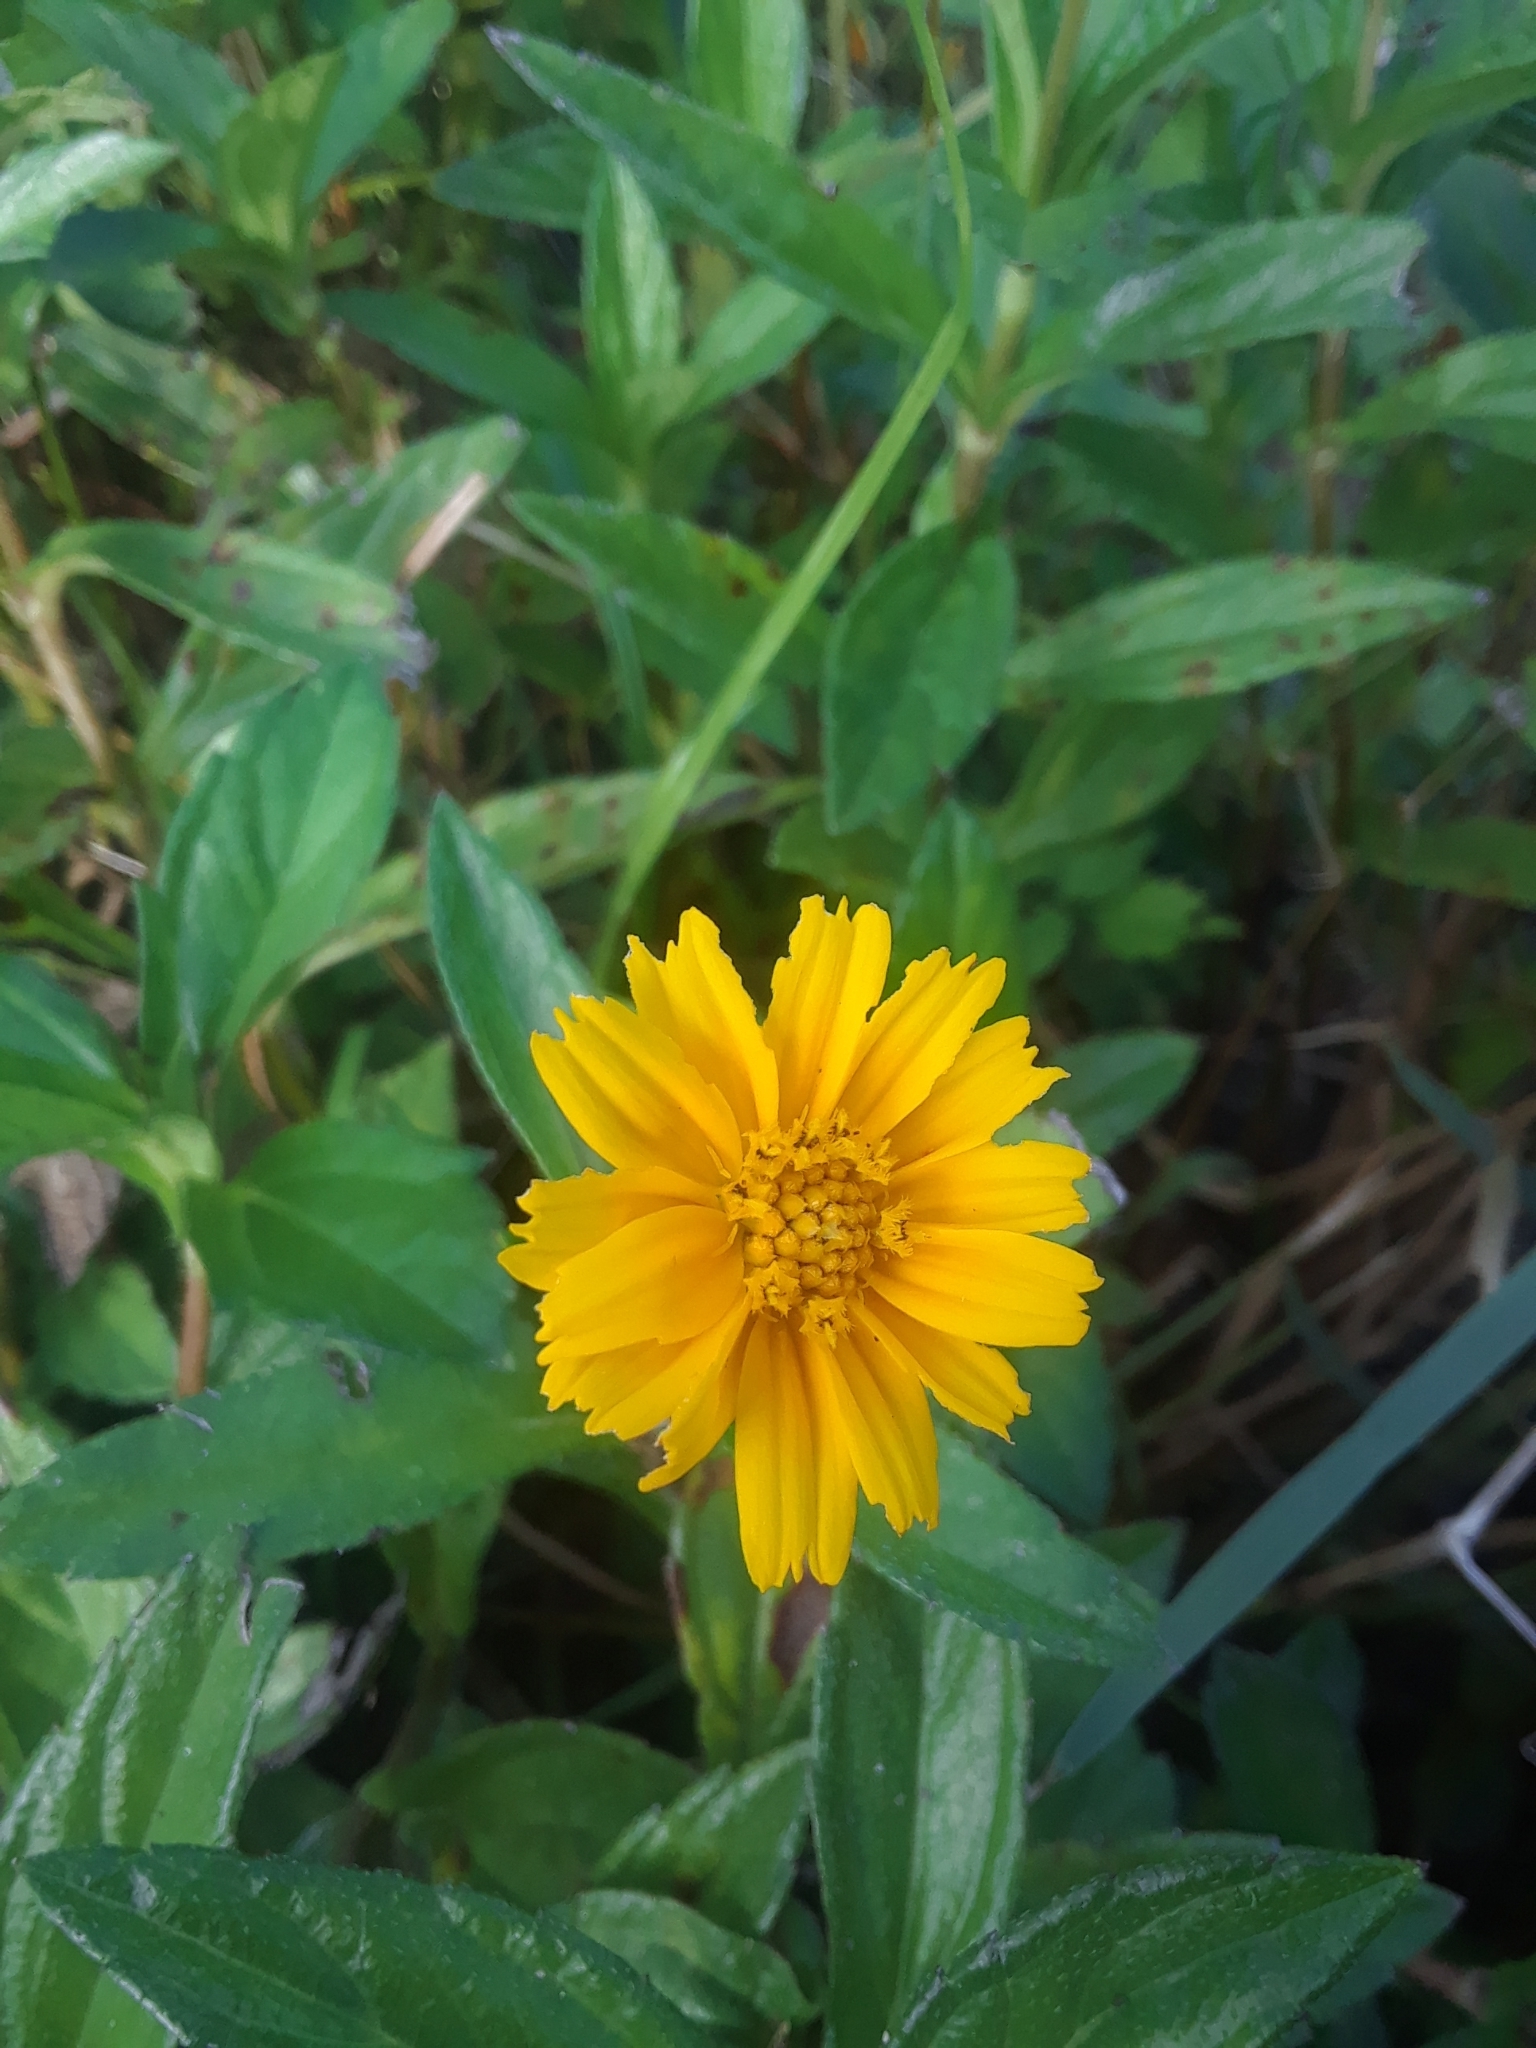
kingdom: Plantae
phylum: Tracheophyta
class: Magnoliopsida
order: Asterales
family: Asteraceae
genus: Sphagneticola
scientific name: Sphagneticola trilobata
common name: Bay biscayne creeping-oxeye
